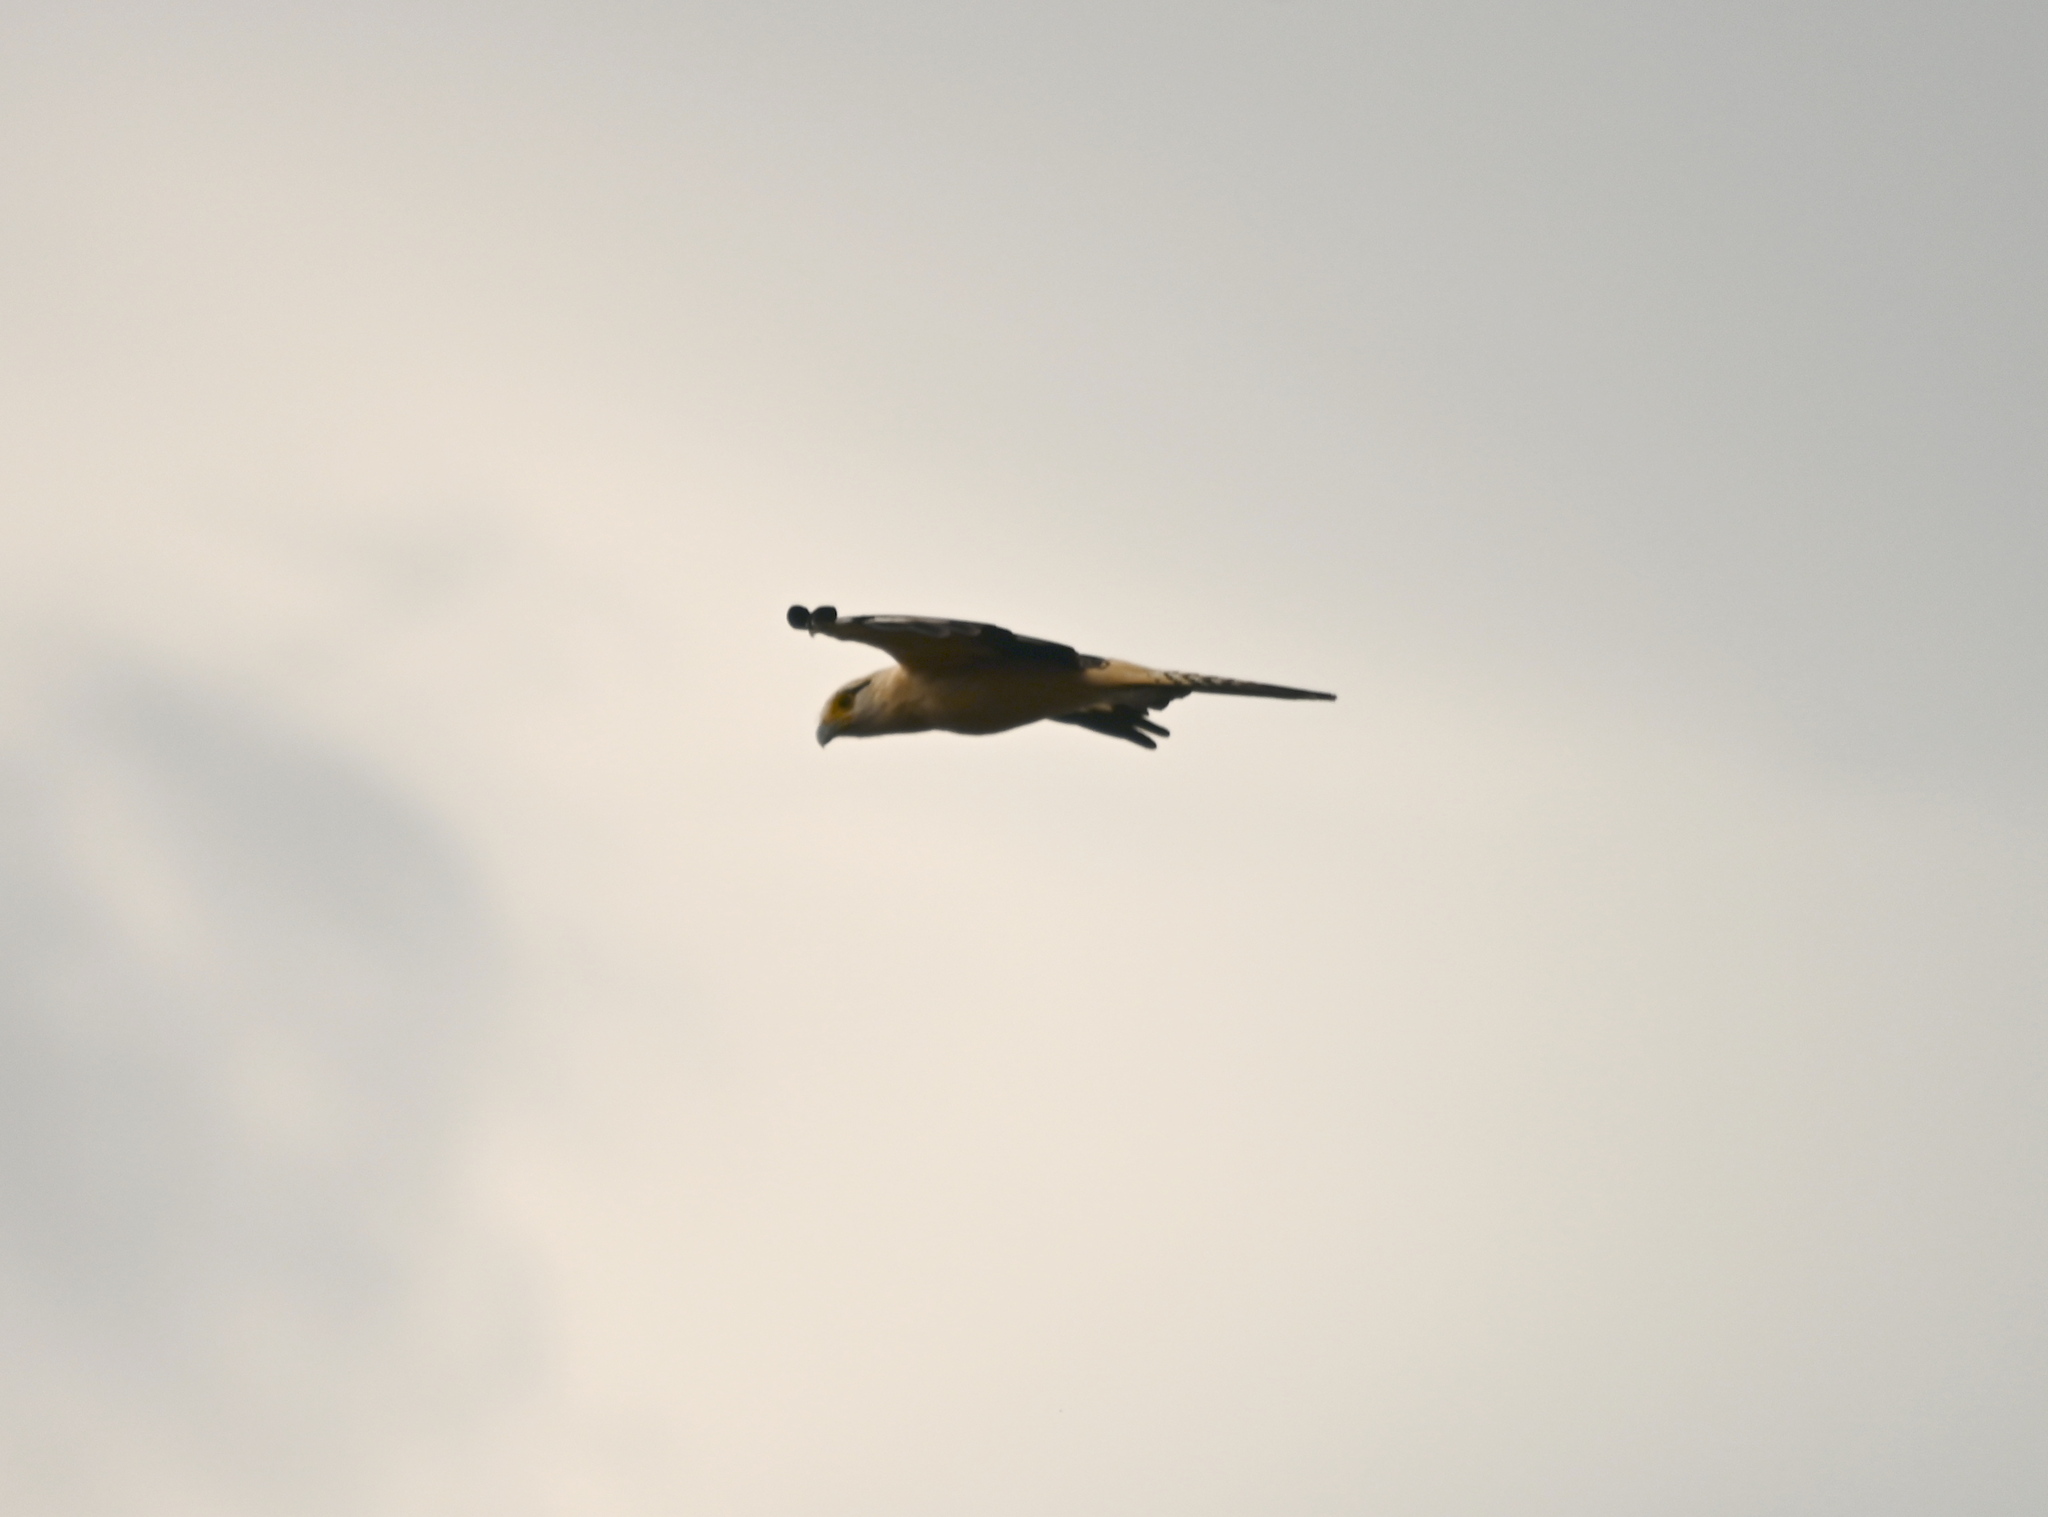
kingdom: Animalia
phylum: Chordata
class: Aves
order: Falconiformes
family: Falconidae
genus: Daptrius
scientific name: Daptrius
